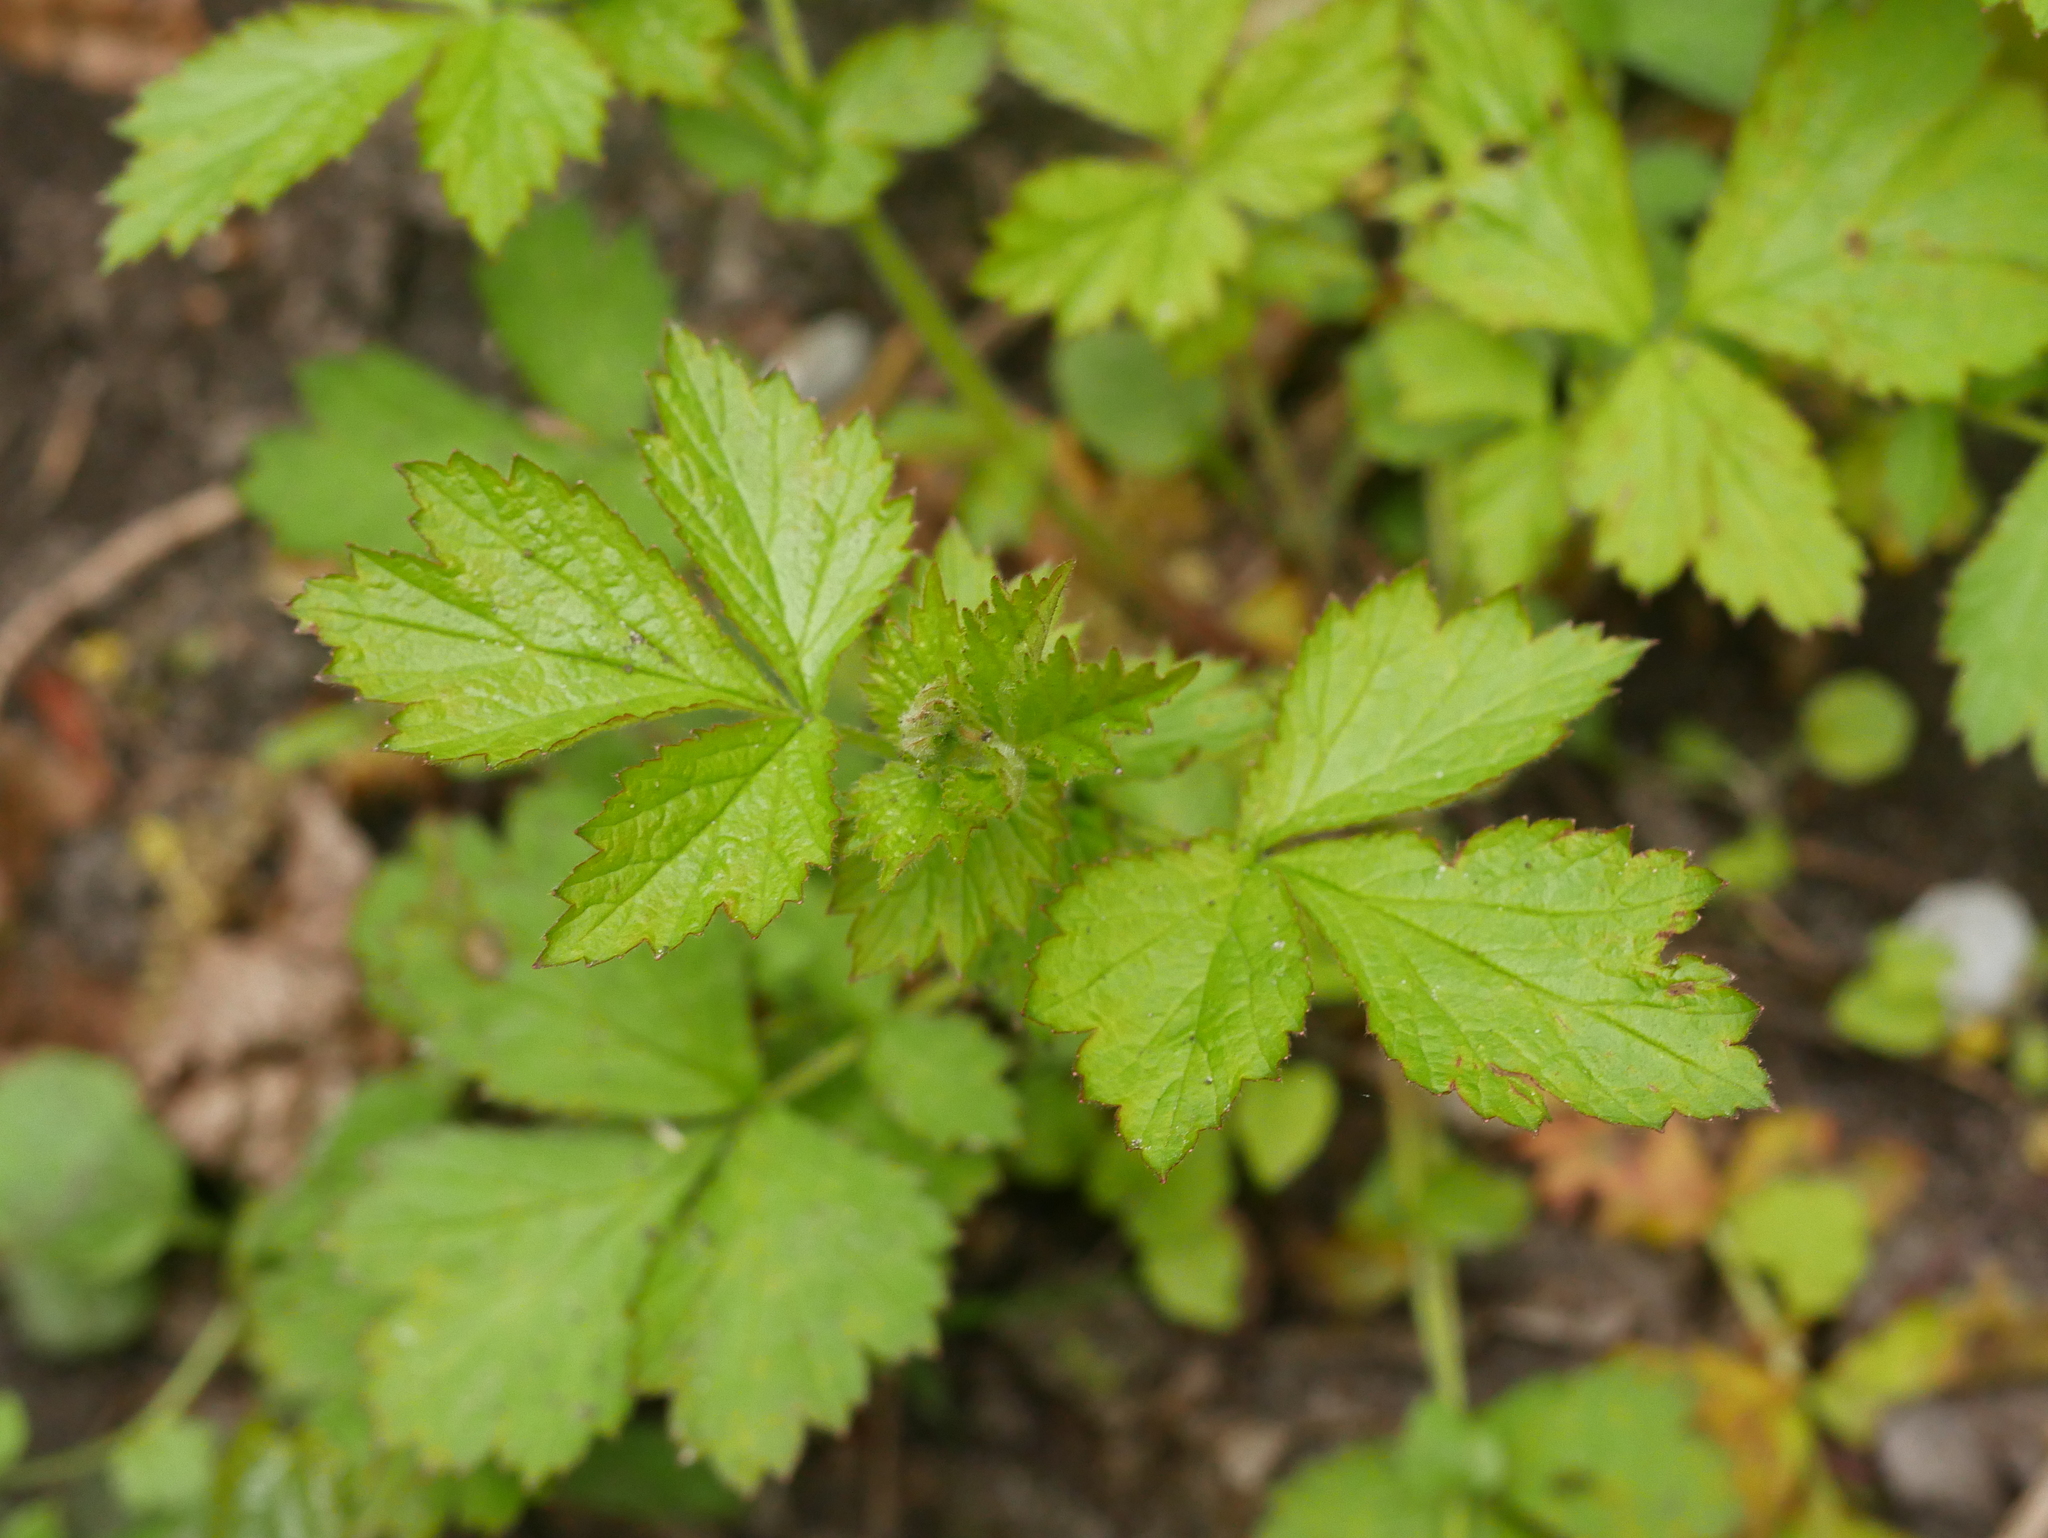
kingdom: Plantae
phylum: Tracheophyta
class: Magnoliopsida
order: Rosales
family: Rosaceae
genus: Geum
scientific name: Geum urbanum
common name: Wood avens
